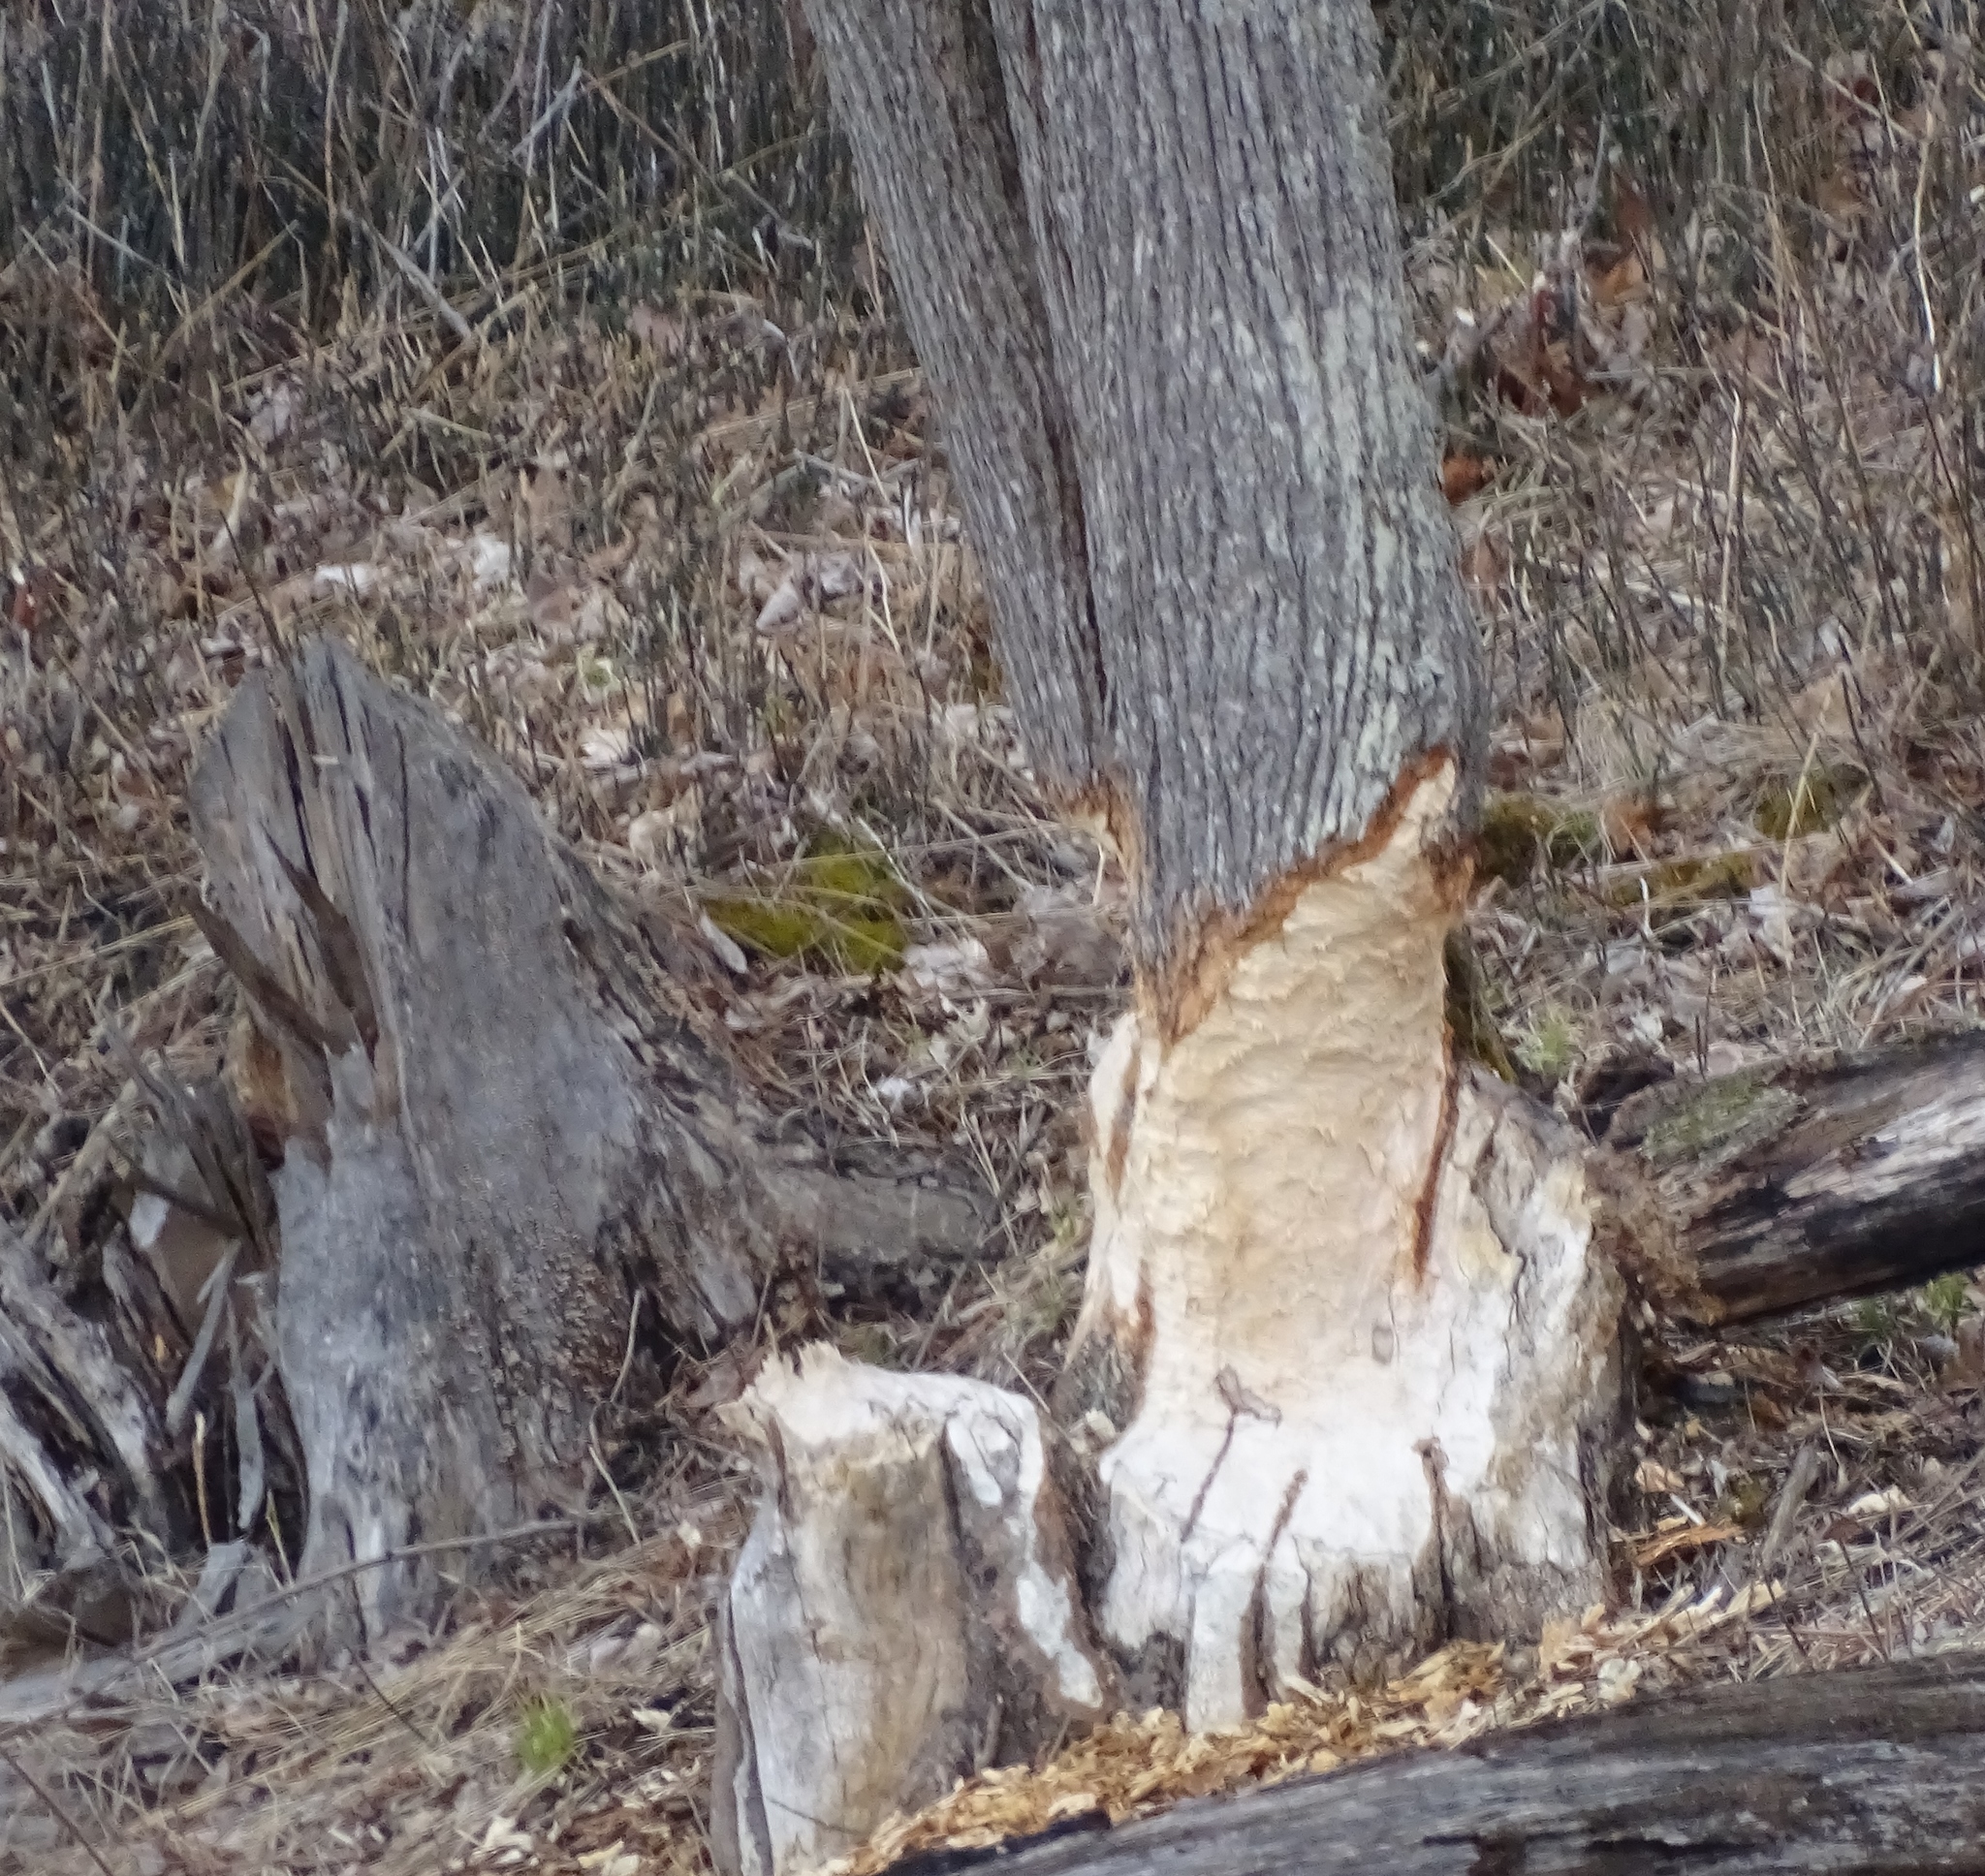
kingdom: Animalia
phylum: Chordata
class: Mammalia
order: Rodentia
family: Castoridae
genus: Castor
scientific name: Castor canadensis
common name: American beaver
